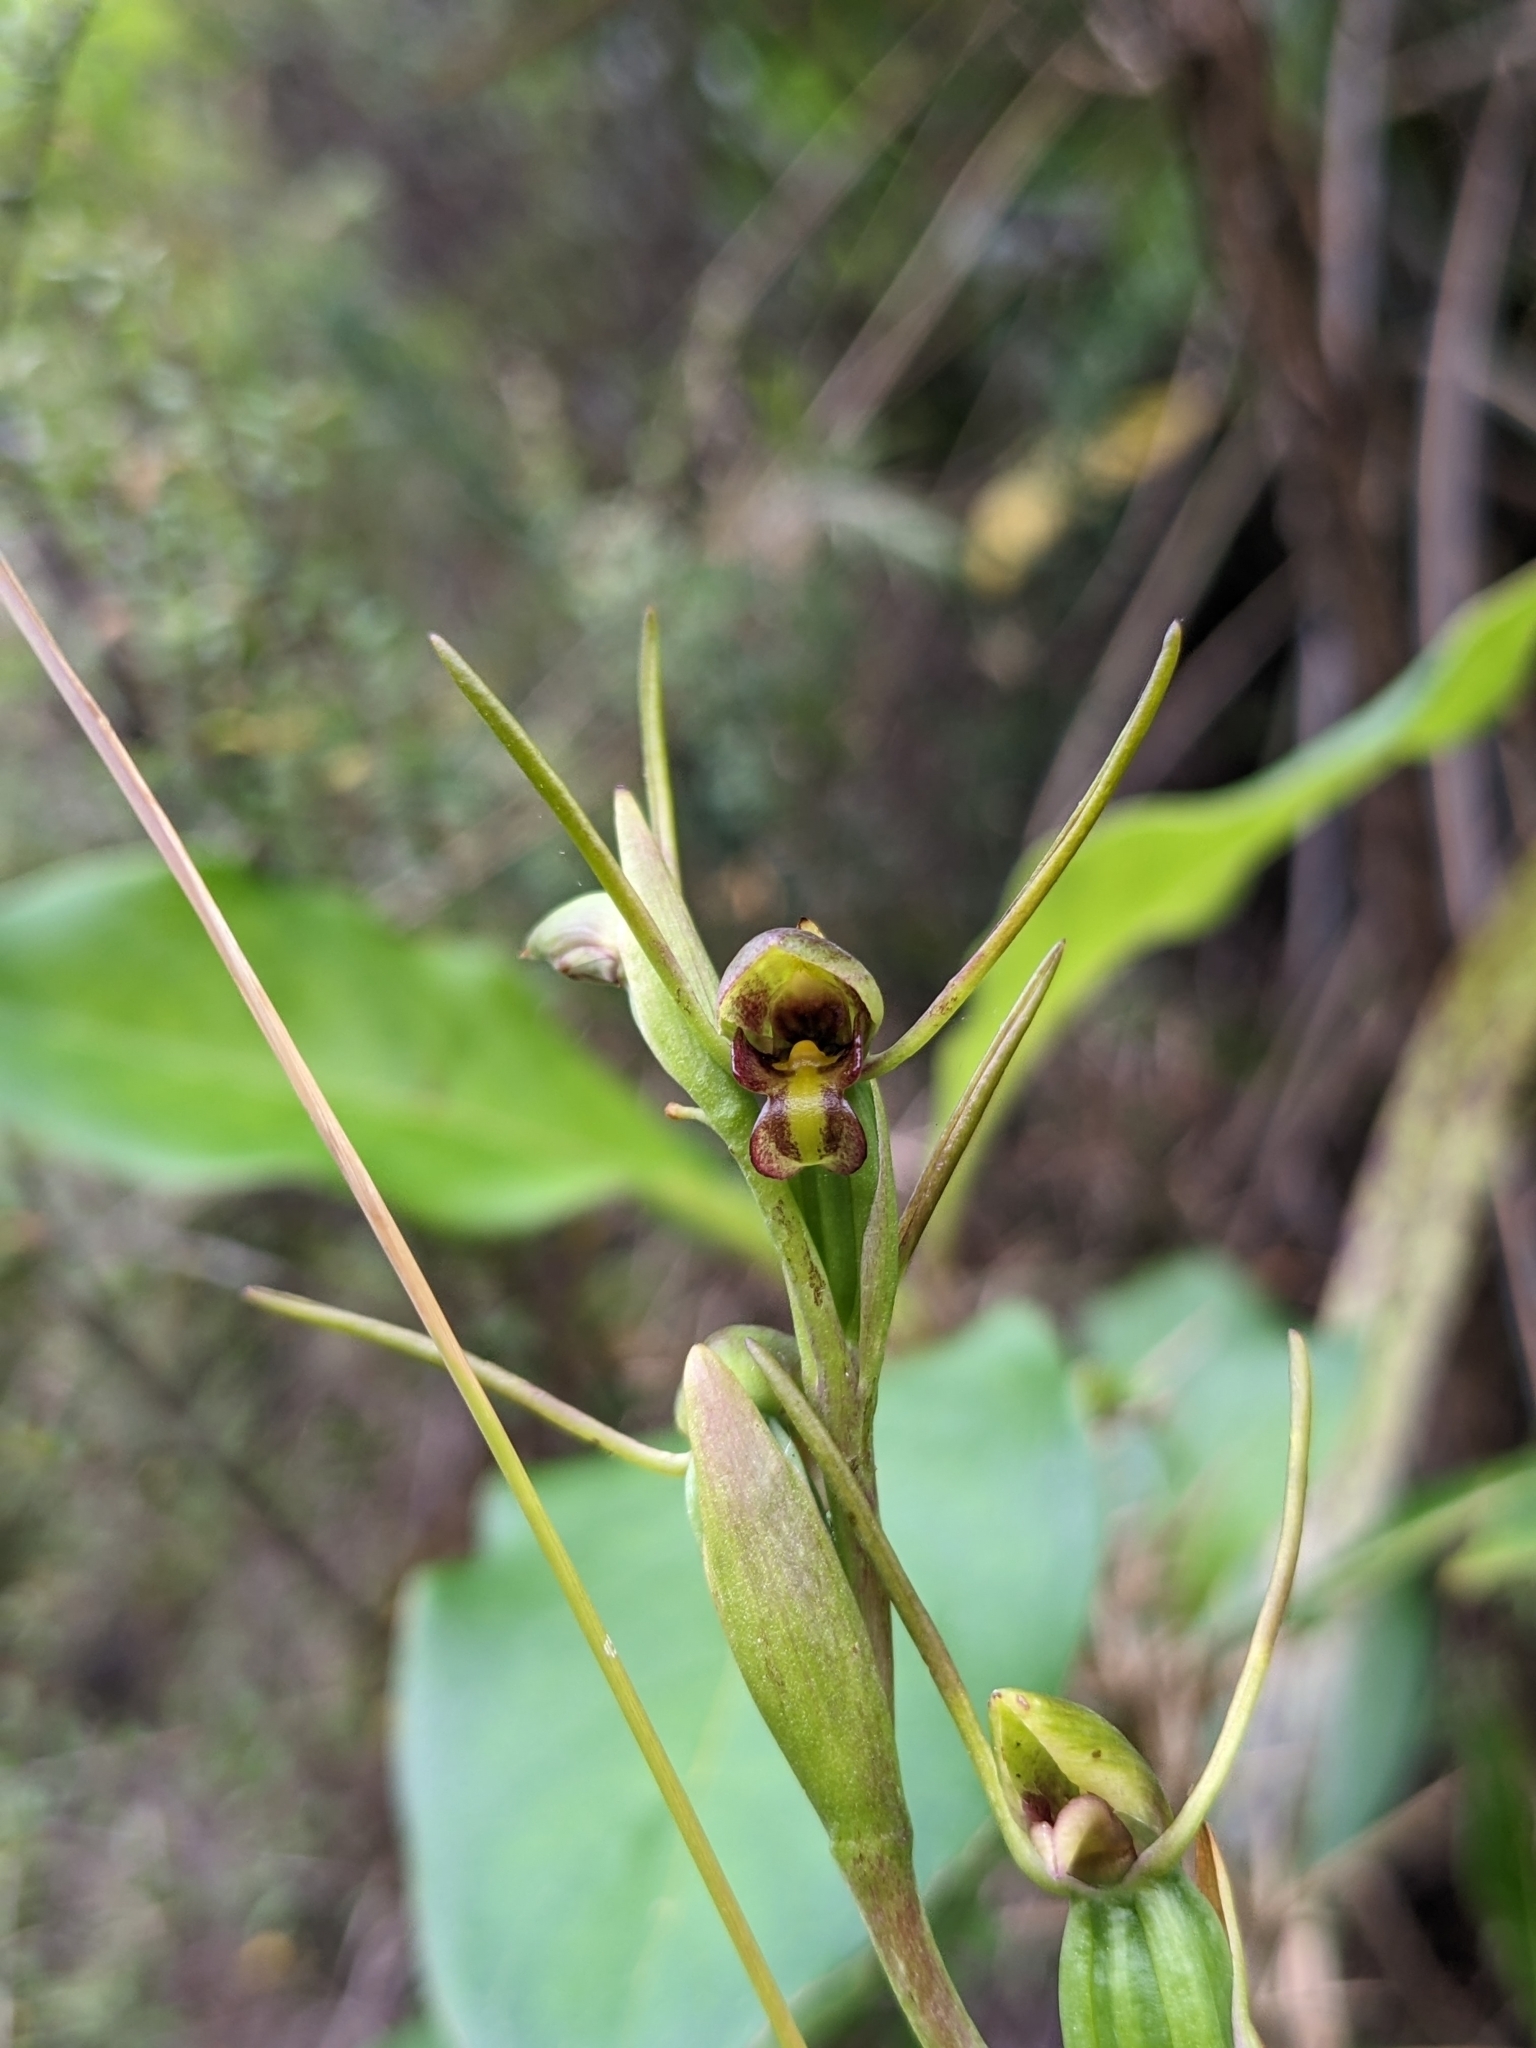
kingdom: Plantae
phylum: Tracheophyta
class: Liliopsida
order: Asparagales
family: Orchidaceae
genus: Orthoceras
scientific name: Orthoceras novae-zeelandiae
